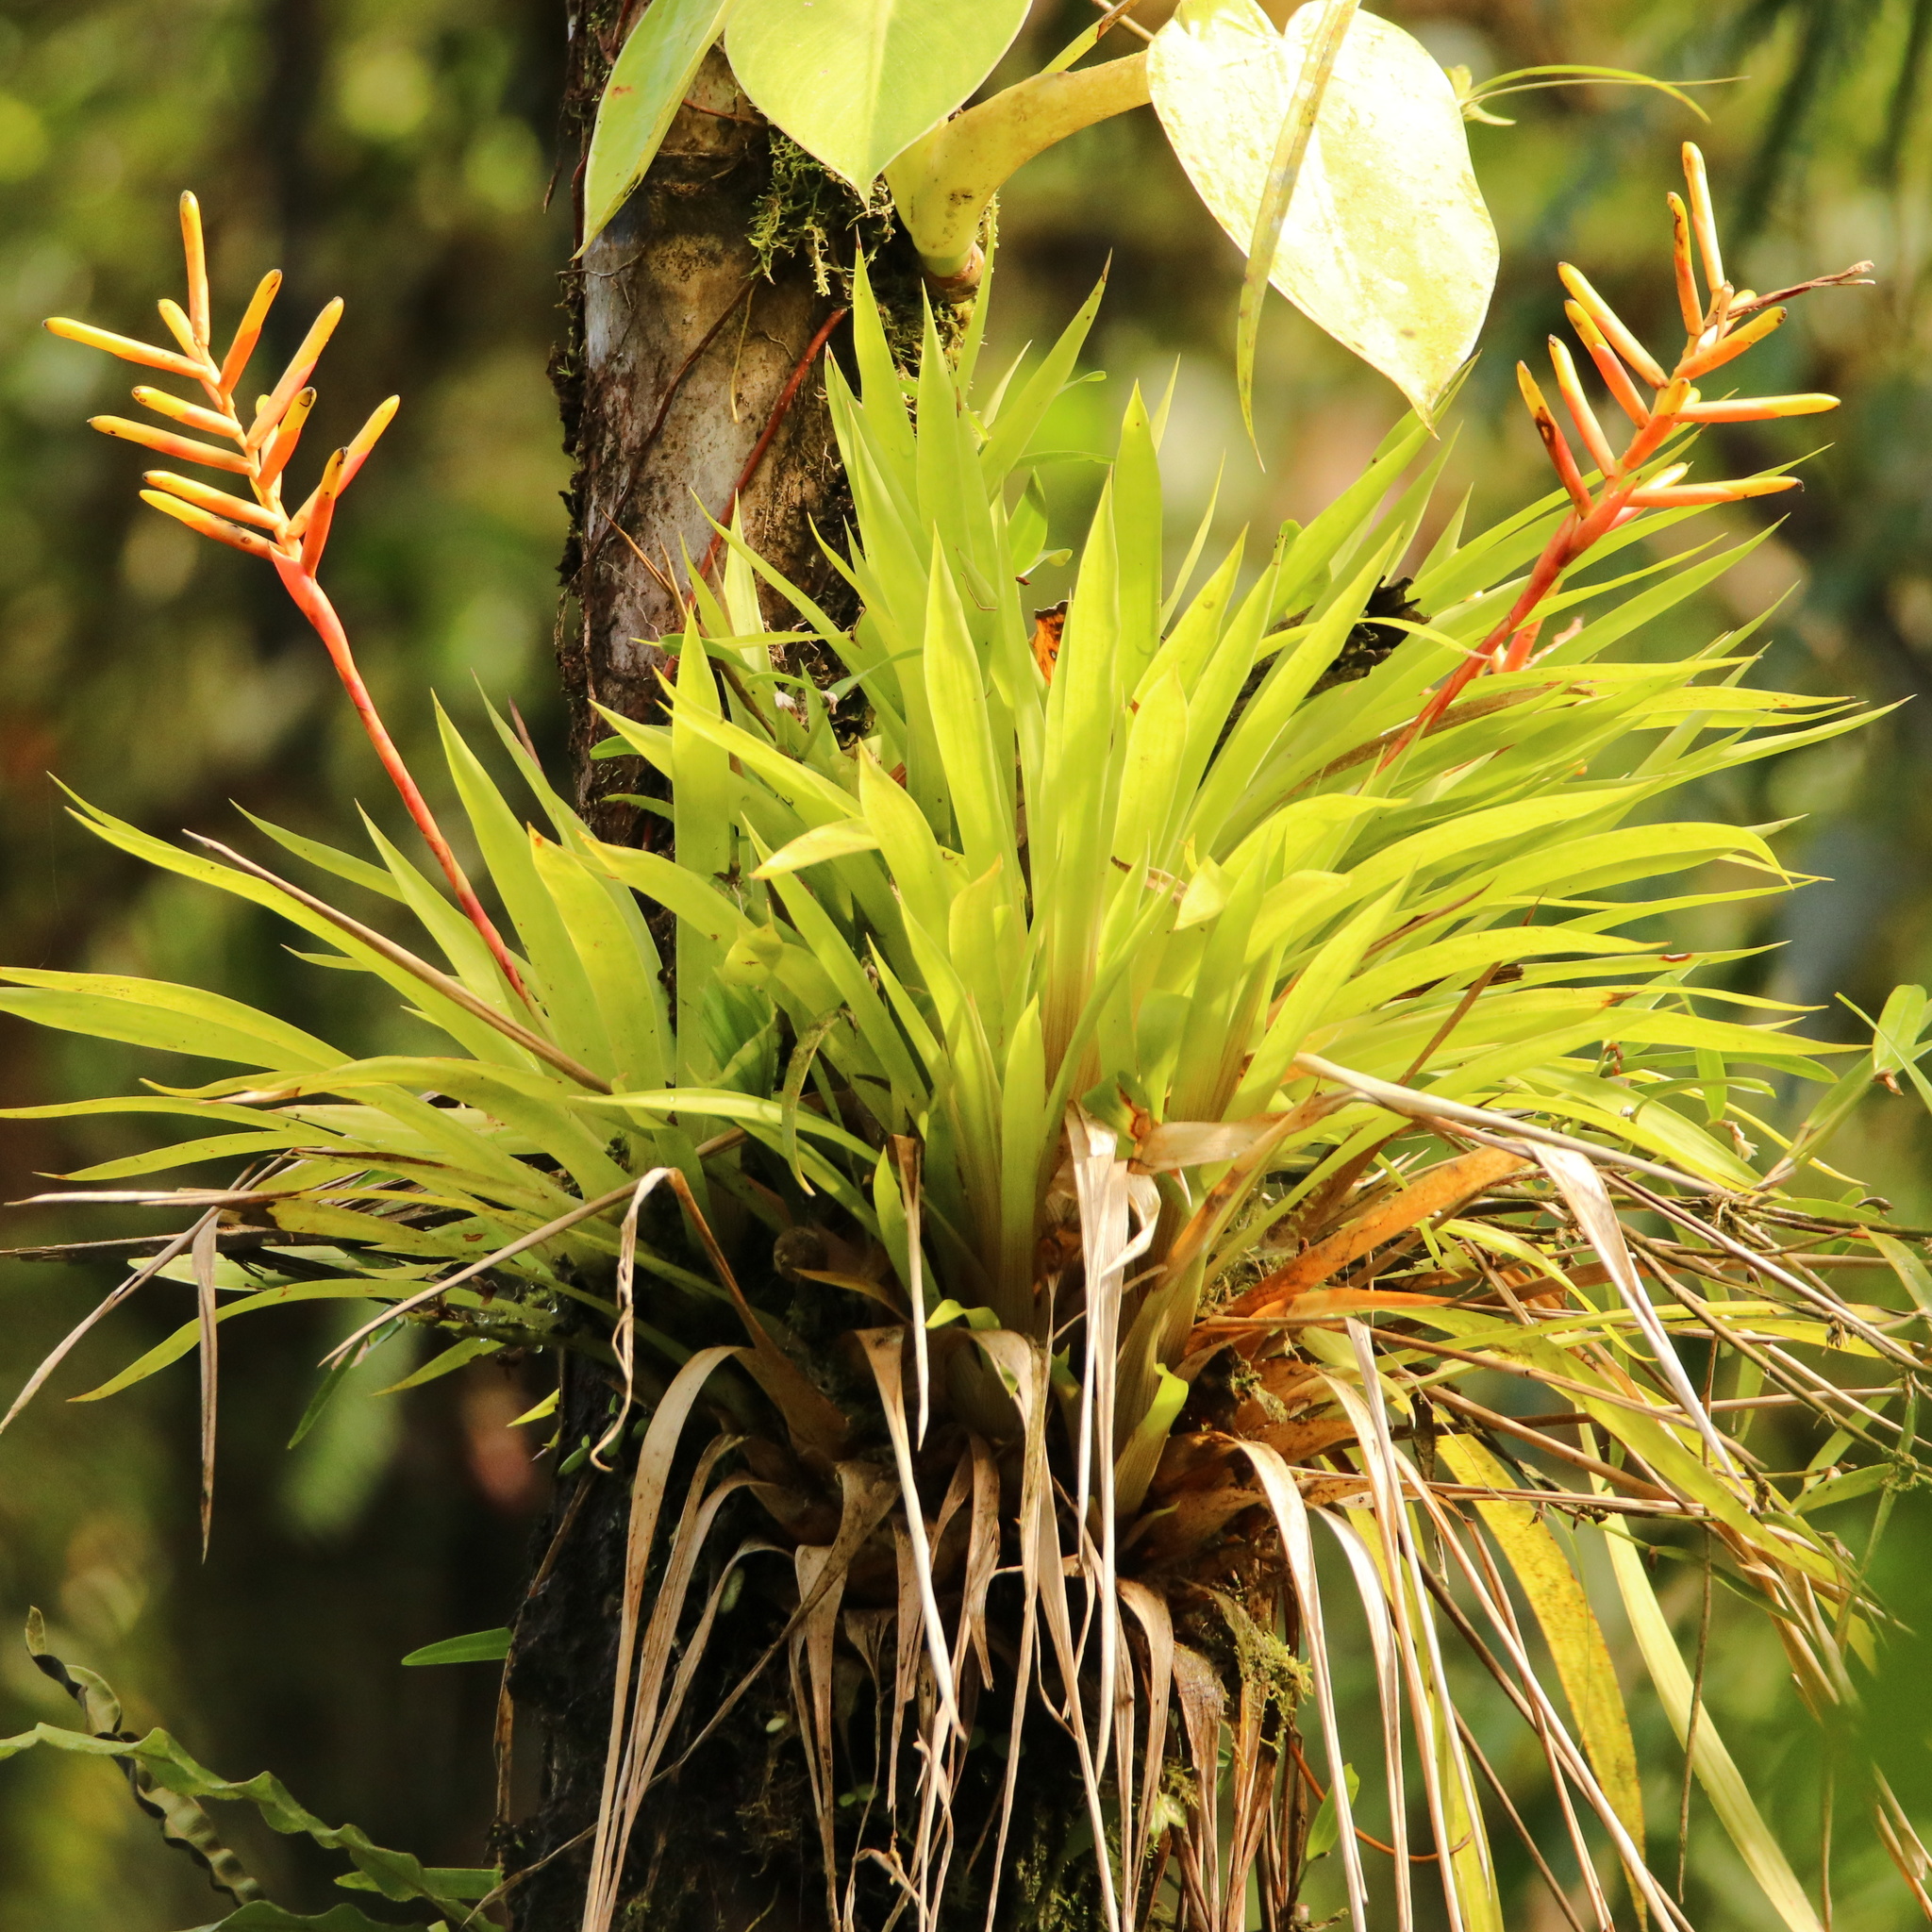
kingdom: Plantae
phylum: Tracheophyta
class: Liliopsida
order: Poales
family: Bromeliaceae
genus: Guzmania
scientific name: Guzmania sprucei
